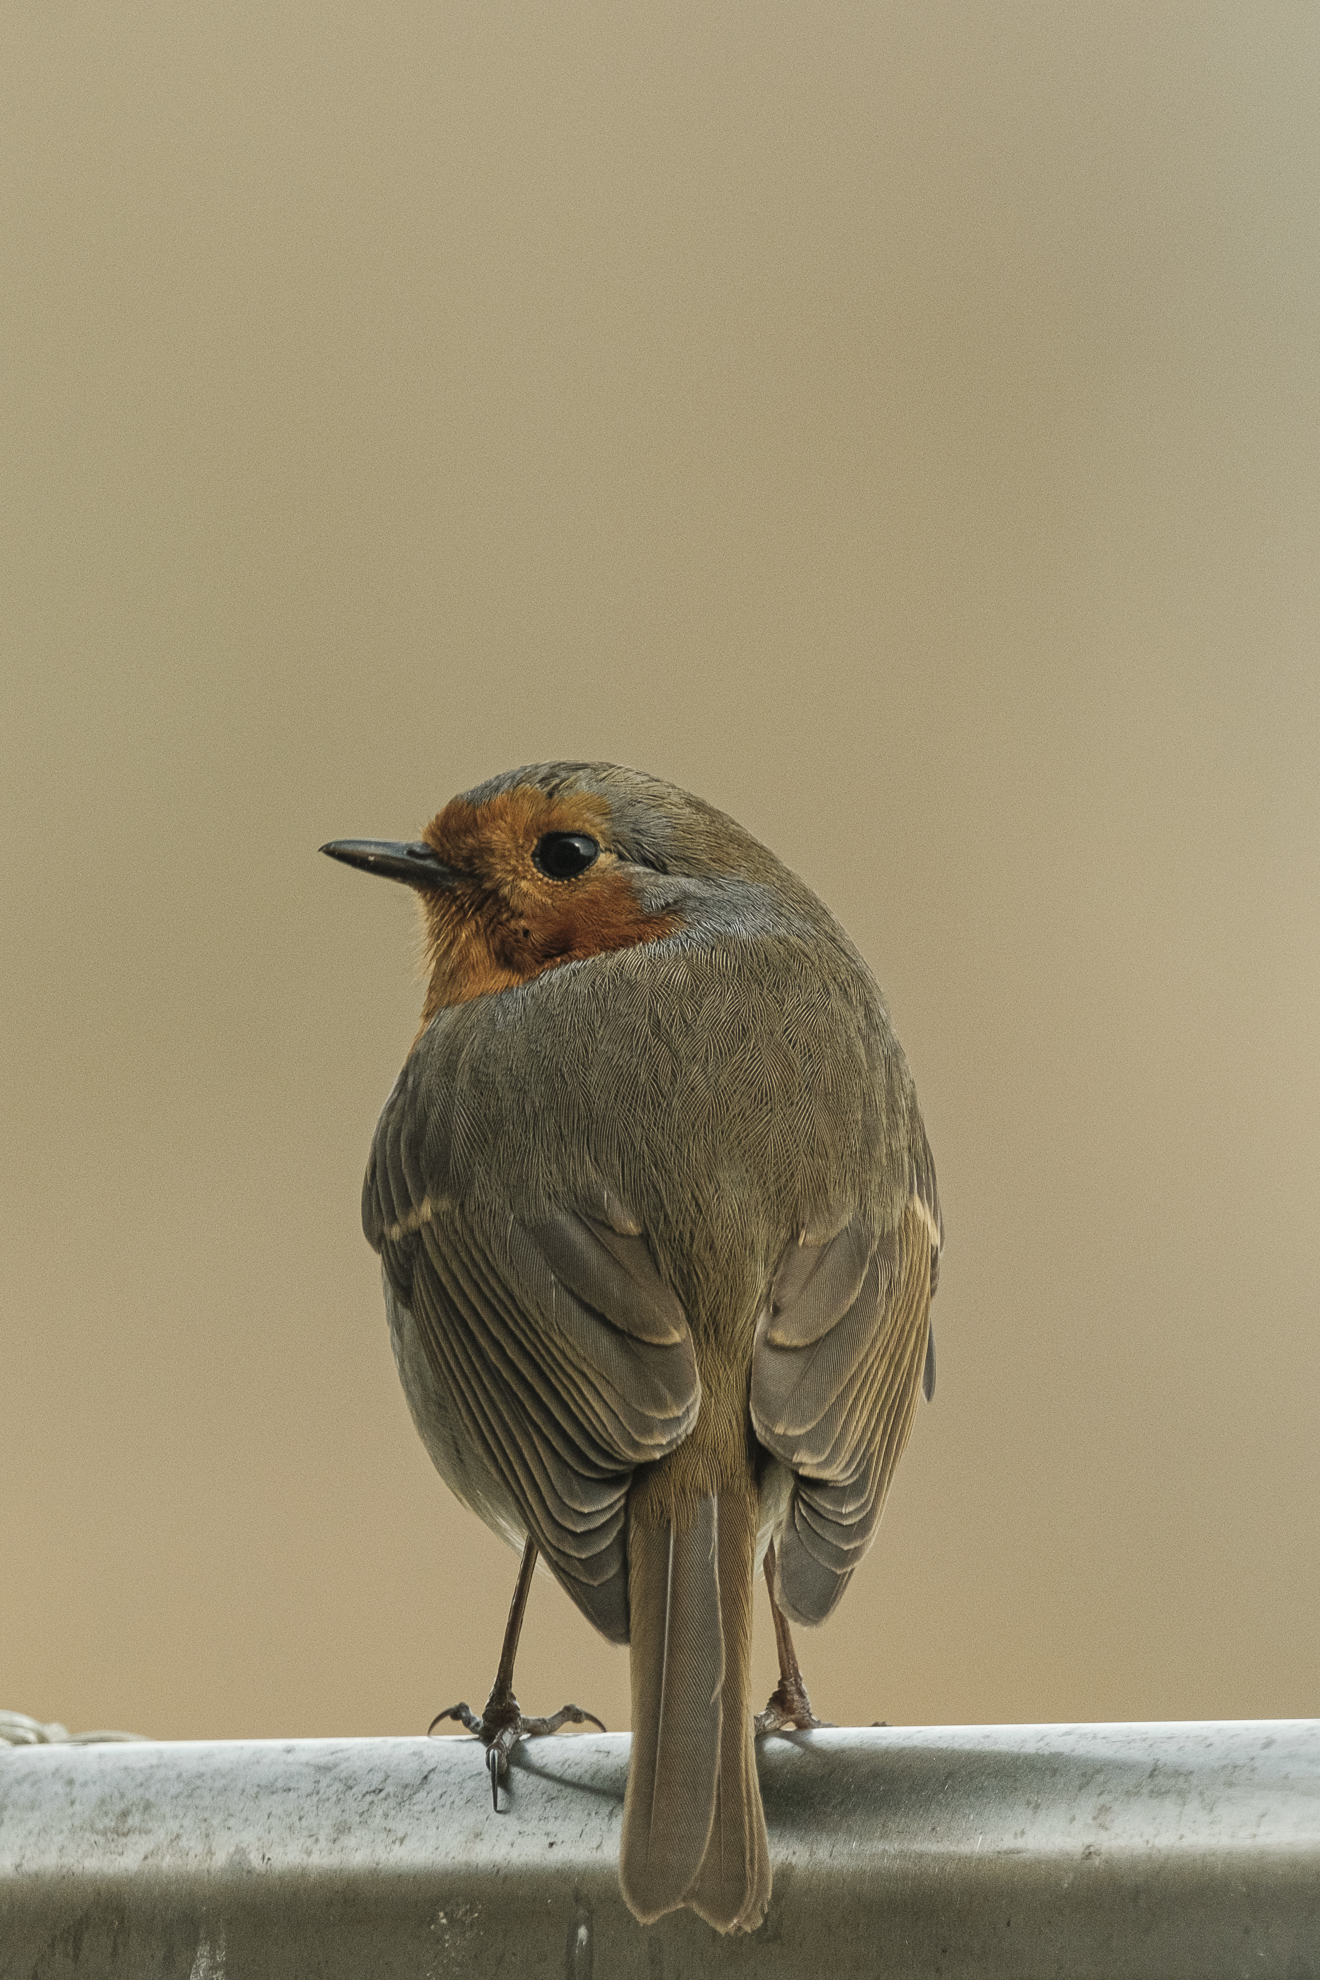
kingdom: Animalia
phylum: Chordata
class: Aves
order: Passeriformes
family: Muscicapidae
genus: Erithacus
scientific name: Erithacus rubecula
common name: European robin
